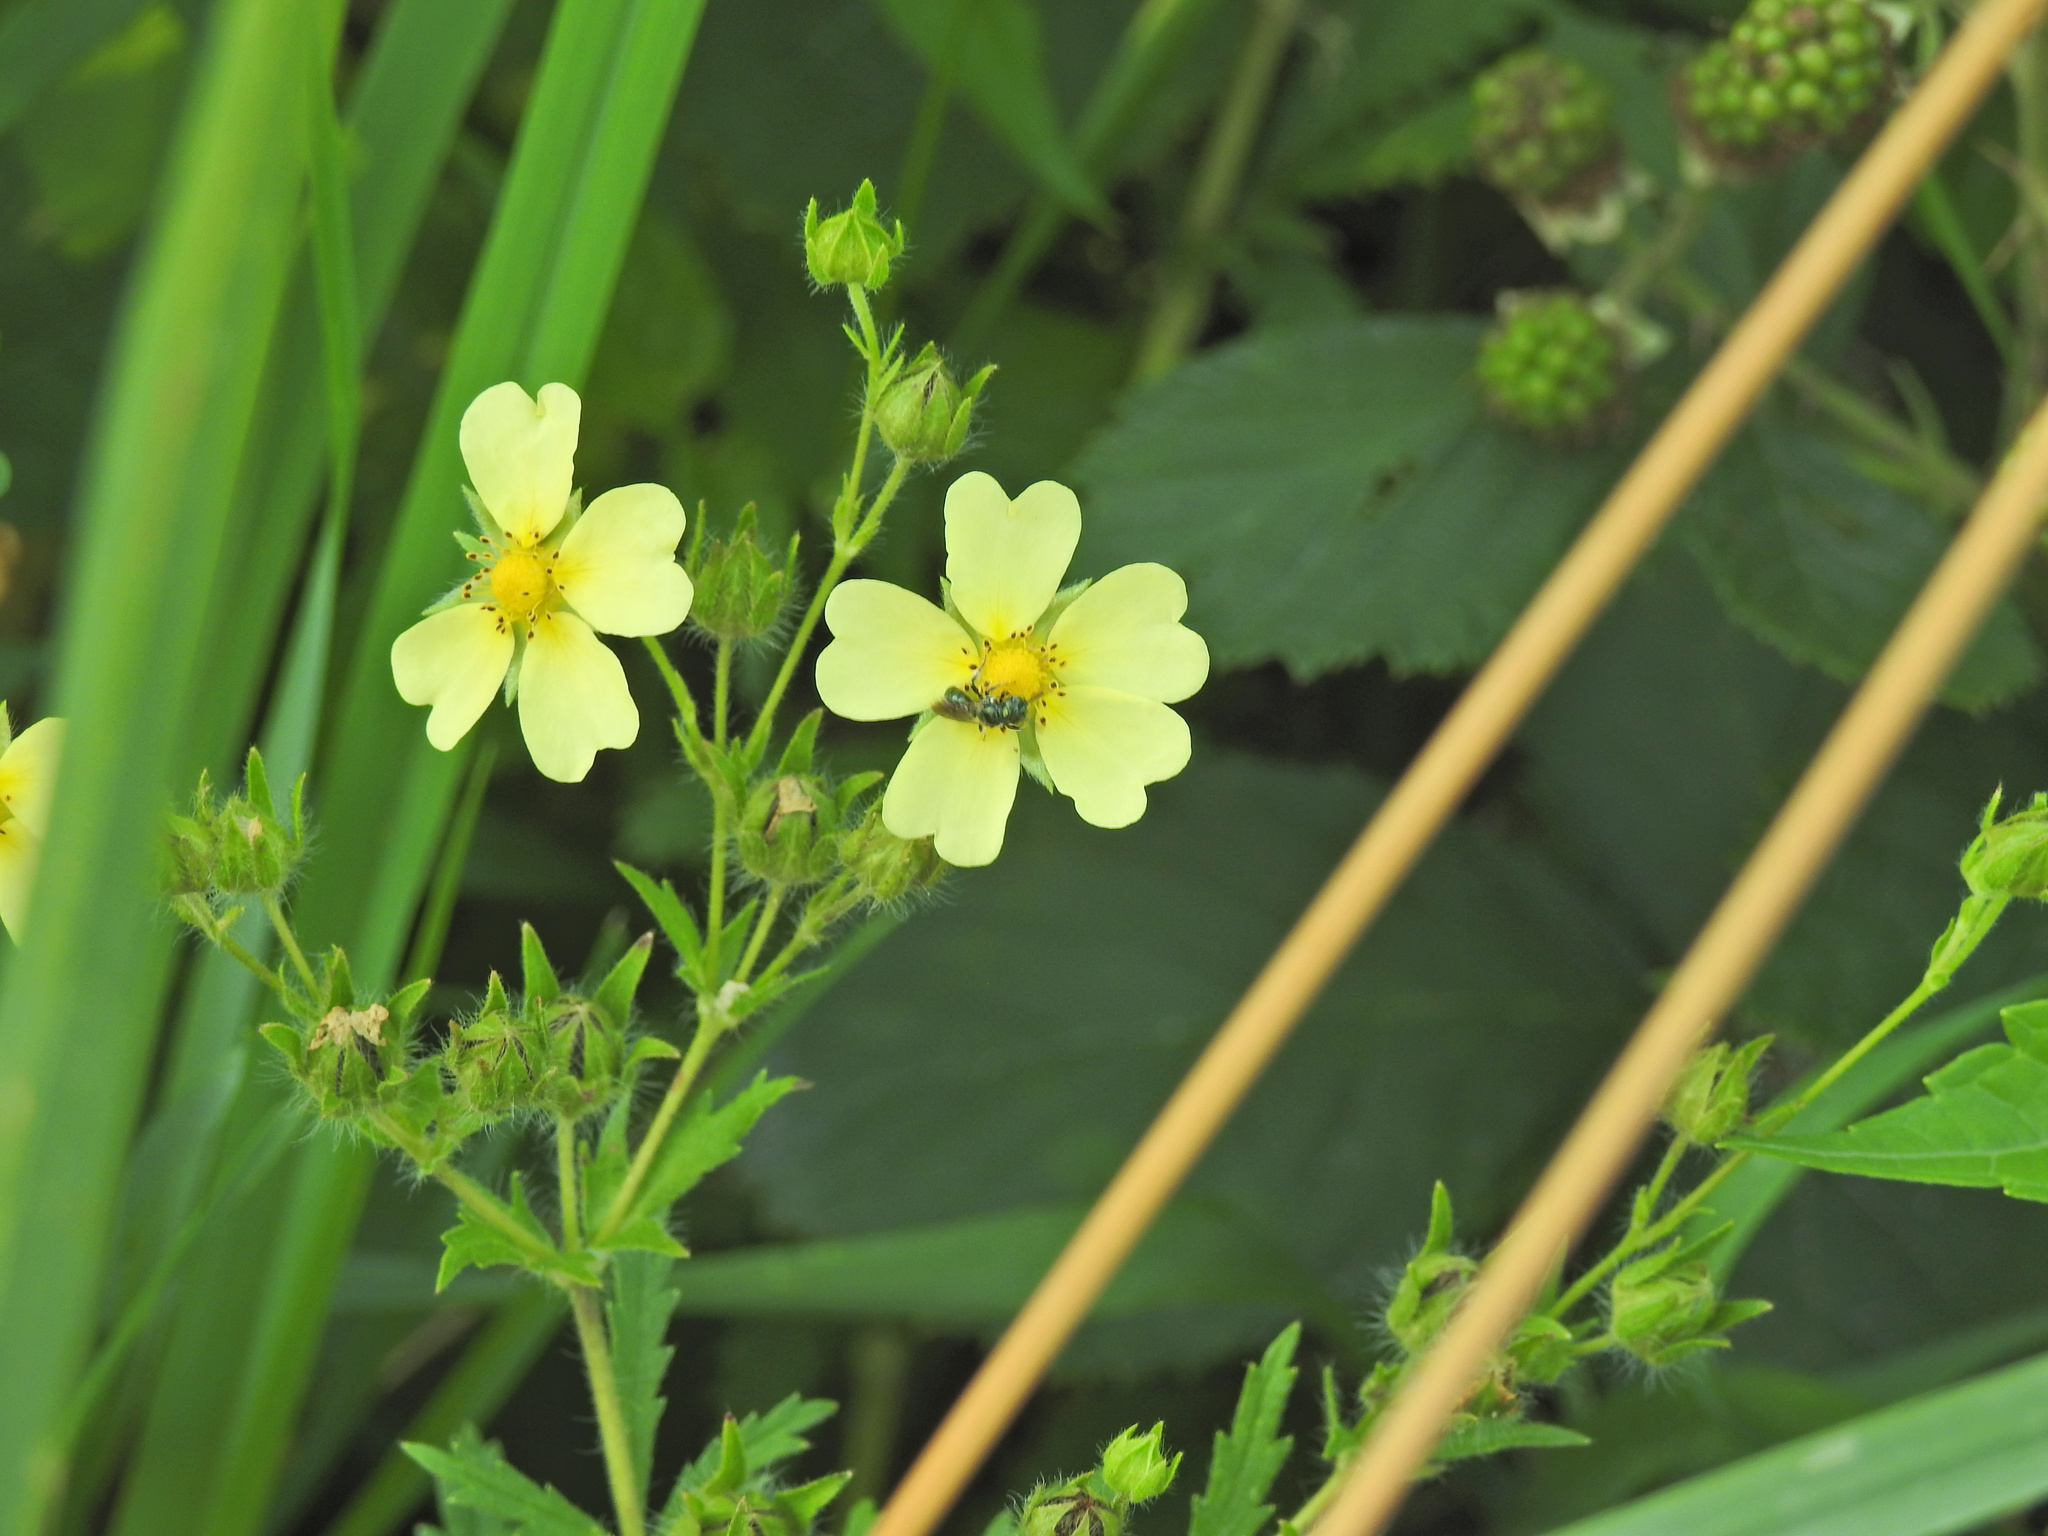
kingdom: Plantae
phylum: Tracheophyta
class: Magnoliopsida
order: Rosales
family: Rosaceae
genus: Potentilla
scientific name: Potentilla recta
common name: Sulphur cinquefoil
